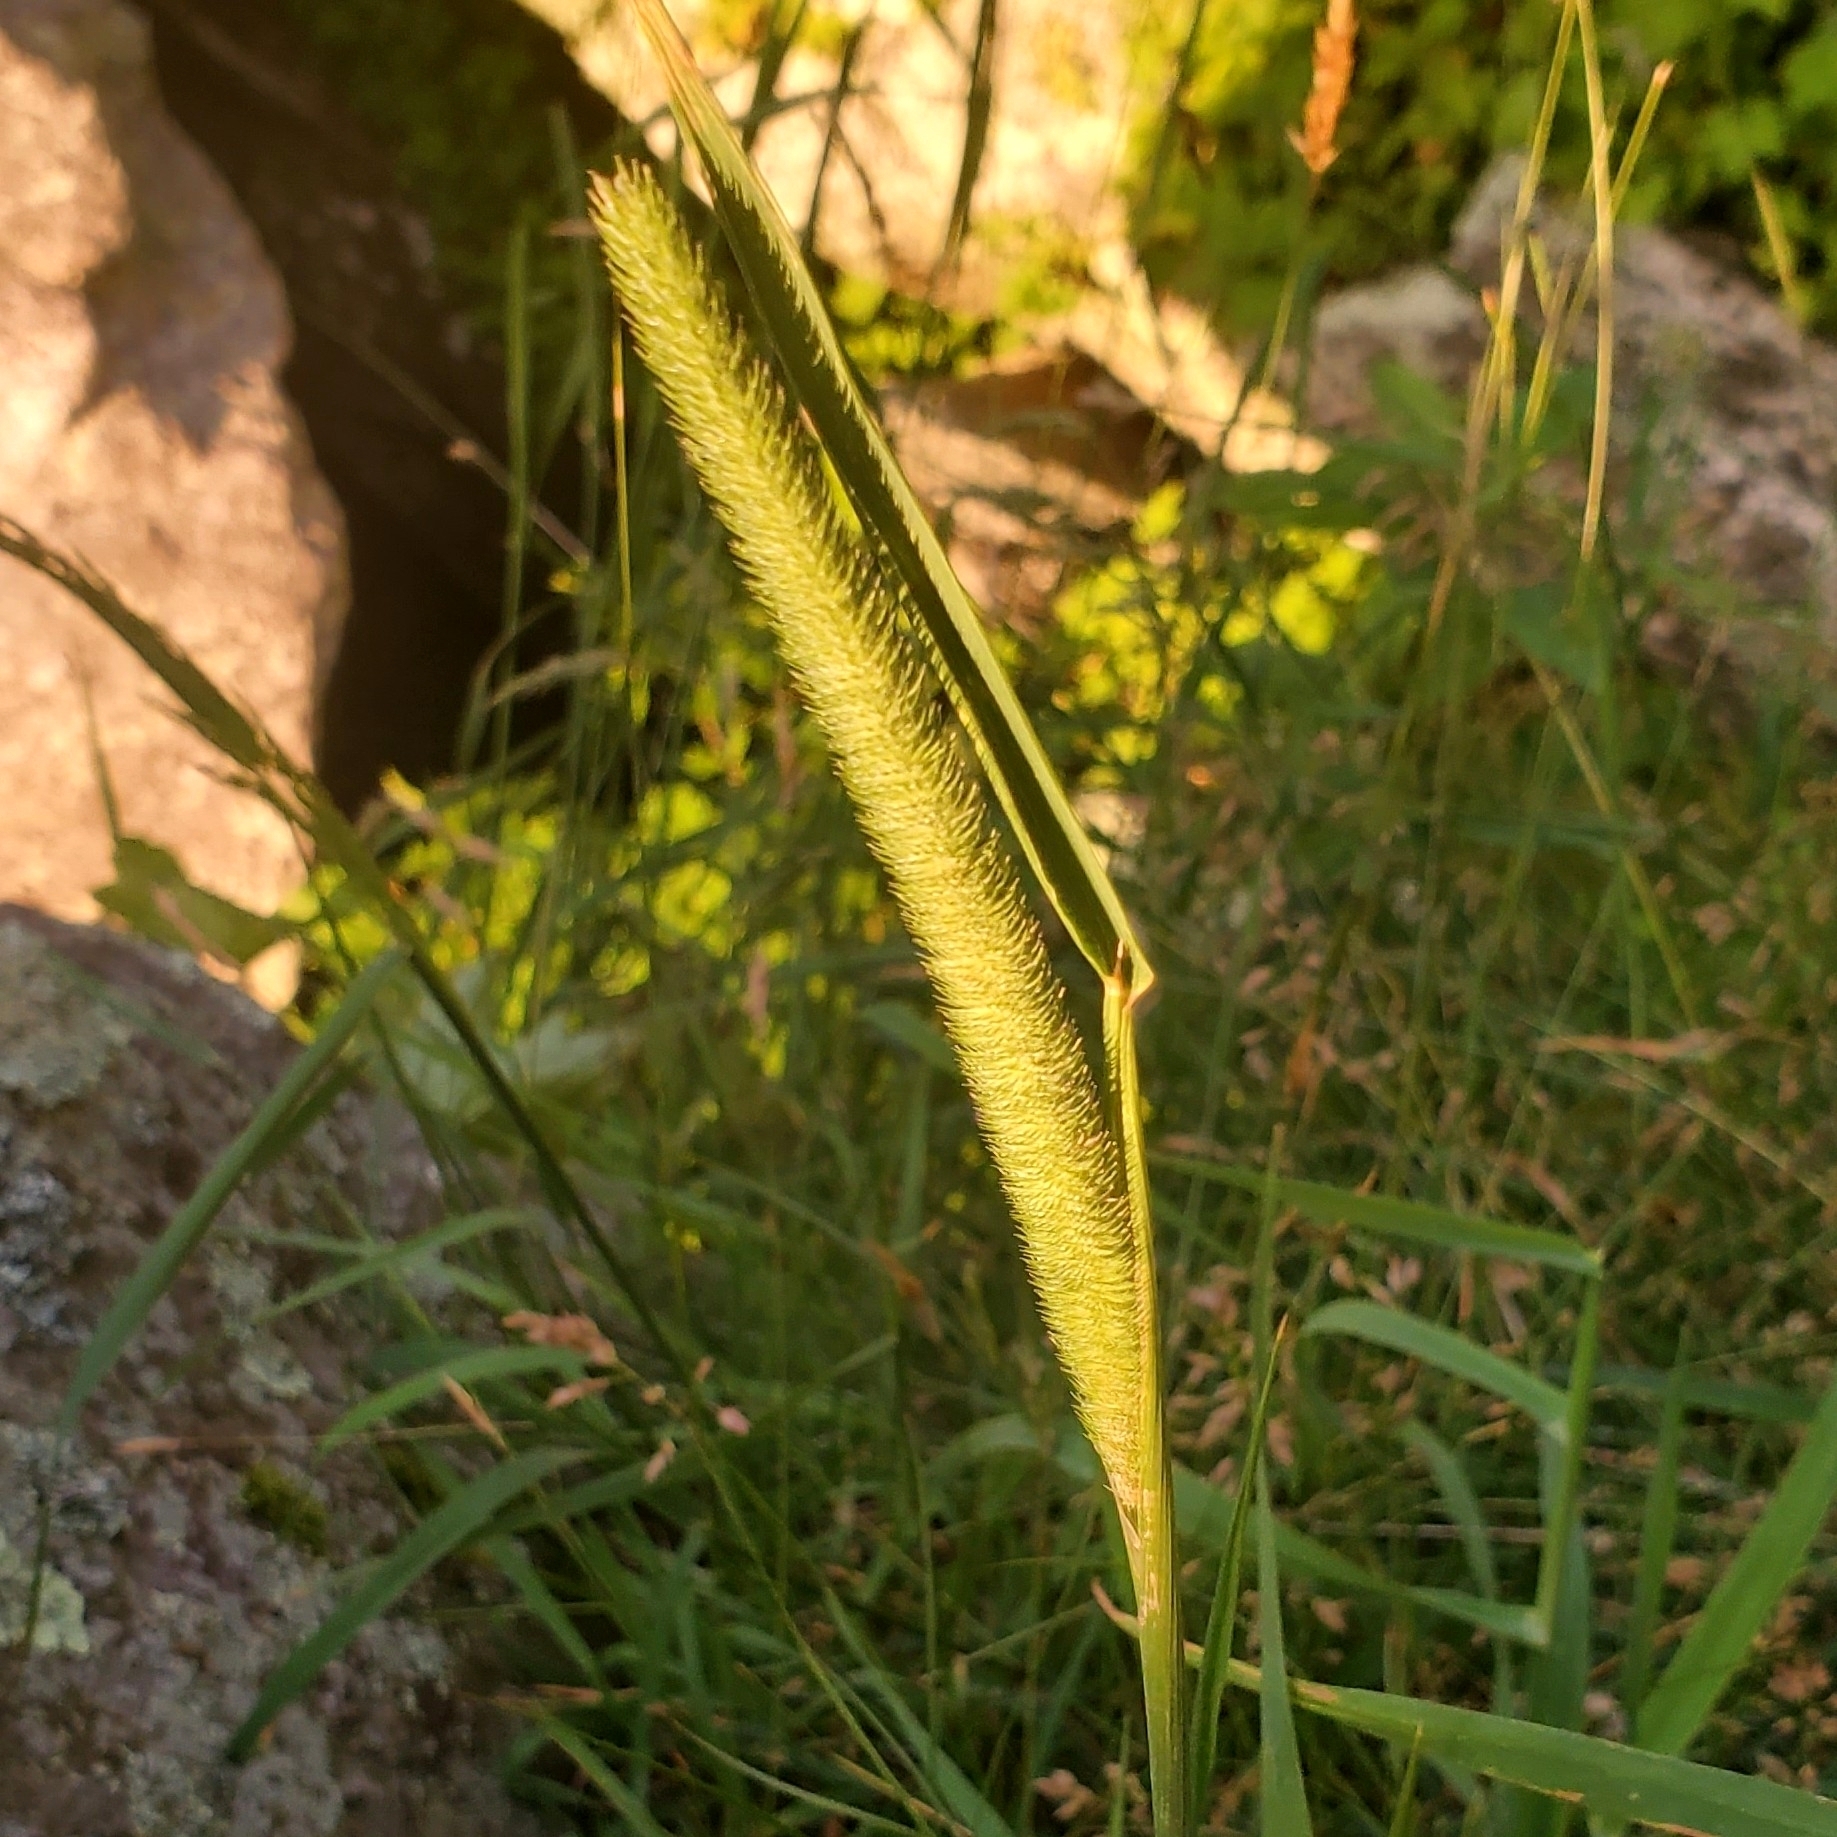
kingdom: Plantae
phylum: Tracheophyta
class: Liliopsida
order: Poales
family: Poaceae
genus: Phleum
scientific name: Phleum pratense
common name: Timothy grass
